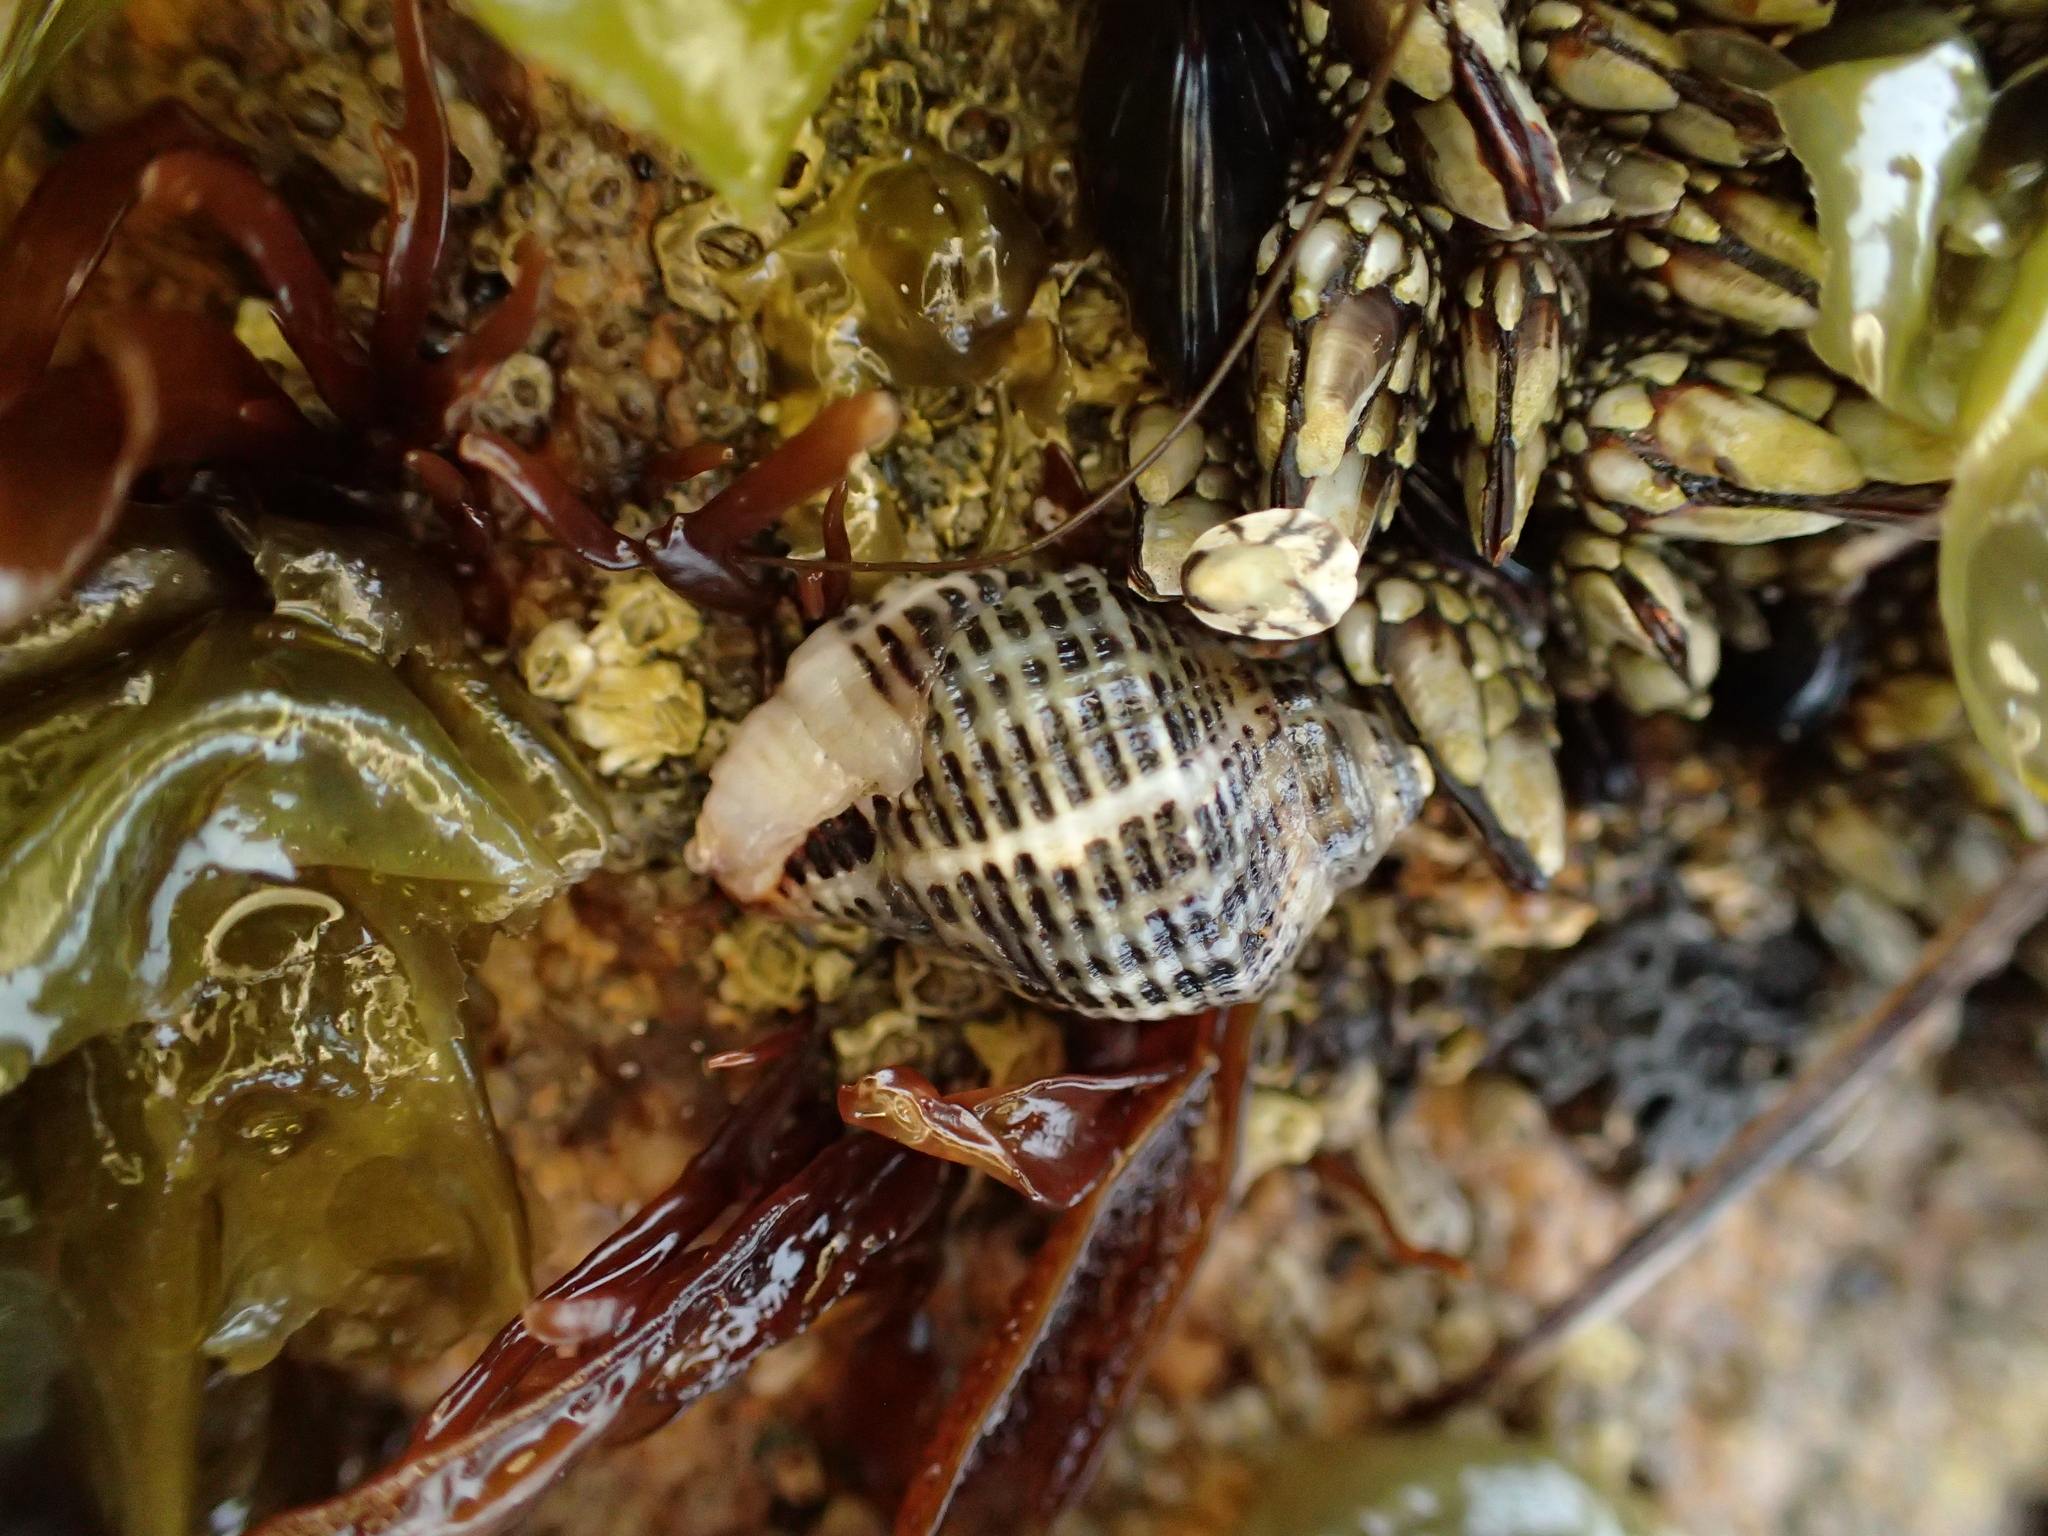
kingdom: Animalia
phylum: Mollusca
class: Gastropoda
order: Neogastropoda
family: Muricidae
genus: Acanthinucella
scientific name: Acanthinucella spirata
